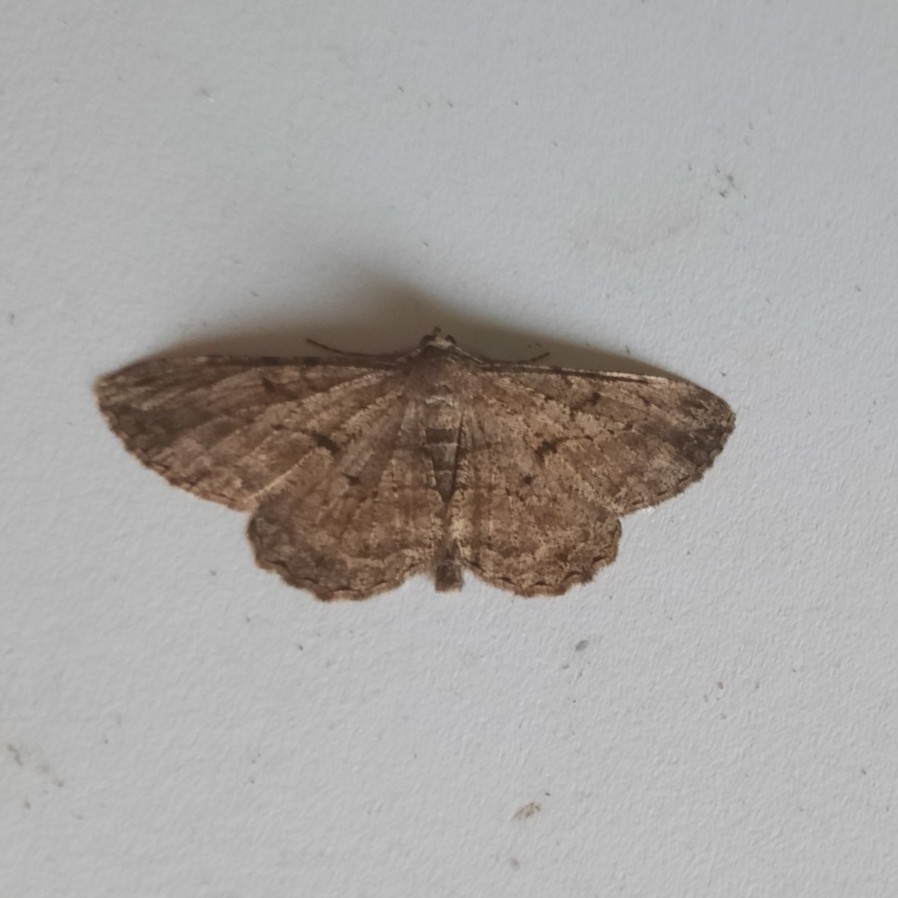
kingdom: Animalia
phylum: Arthropoda
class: Insecta
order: Lepidoptera
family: Geometridae
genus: Peribatodes
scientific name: Peribatodes rhomboidaria
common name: Willow beauty
